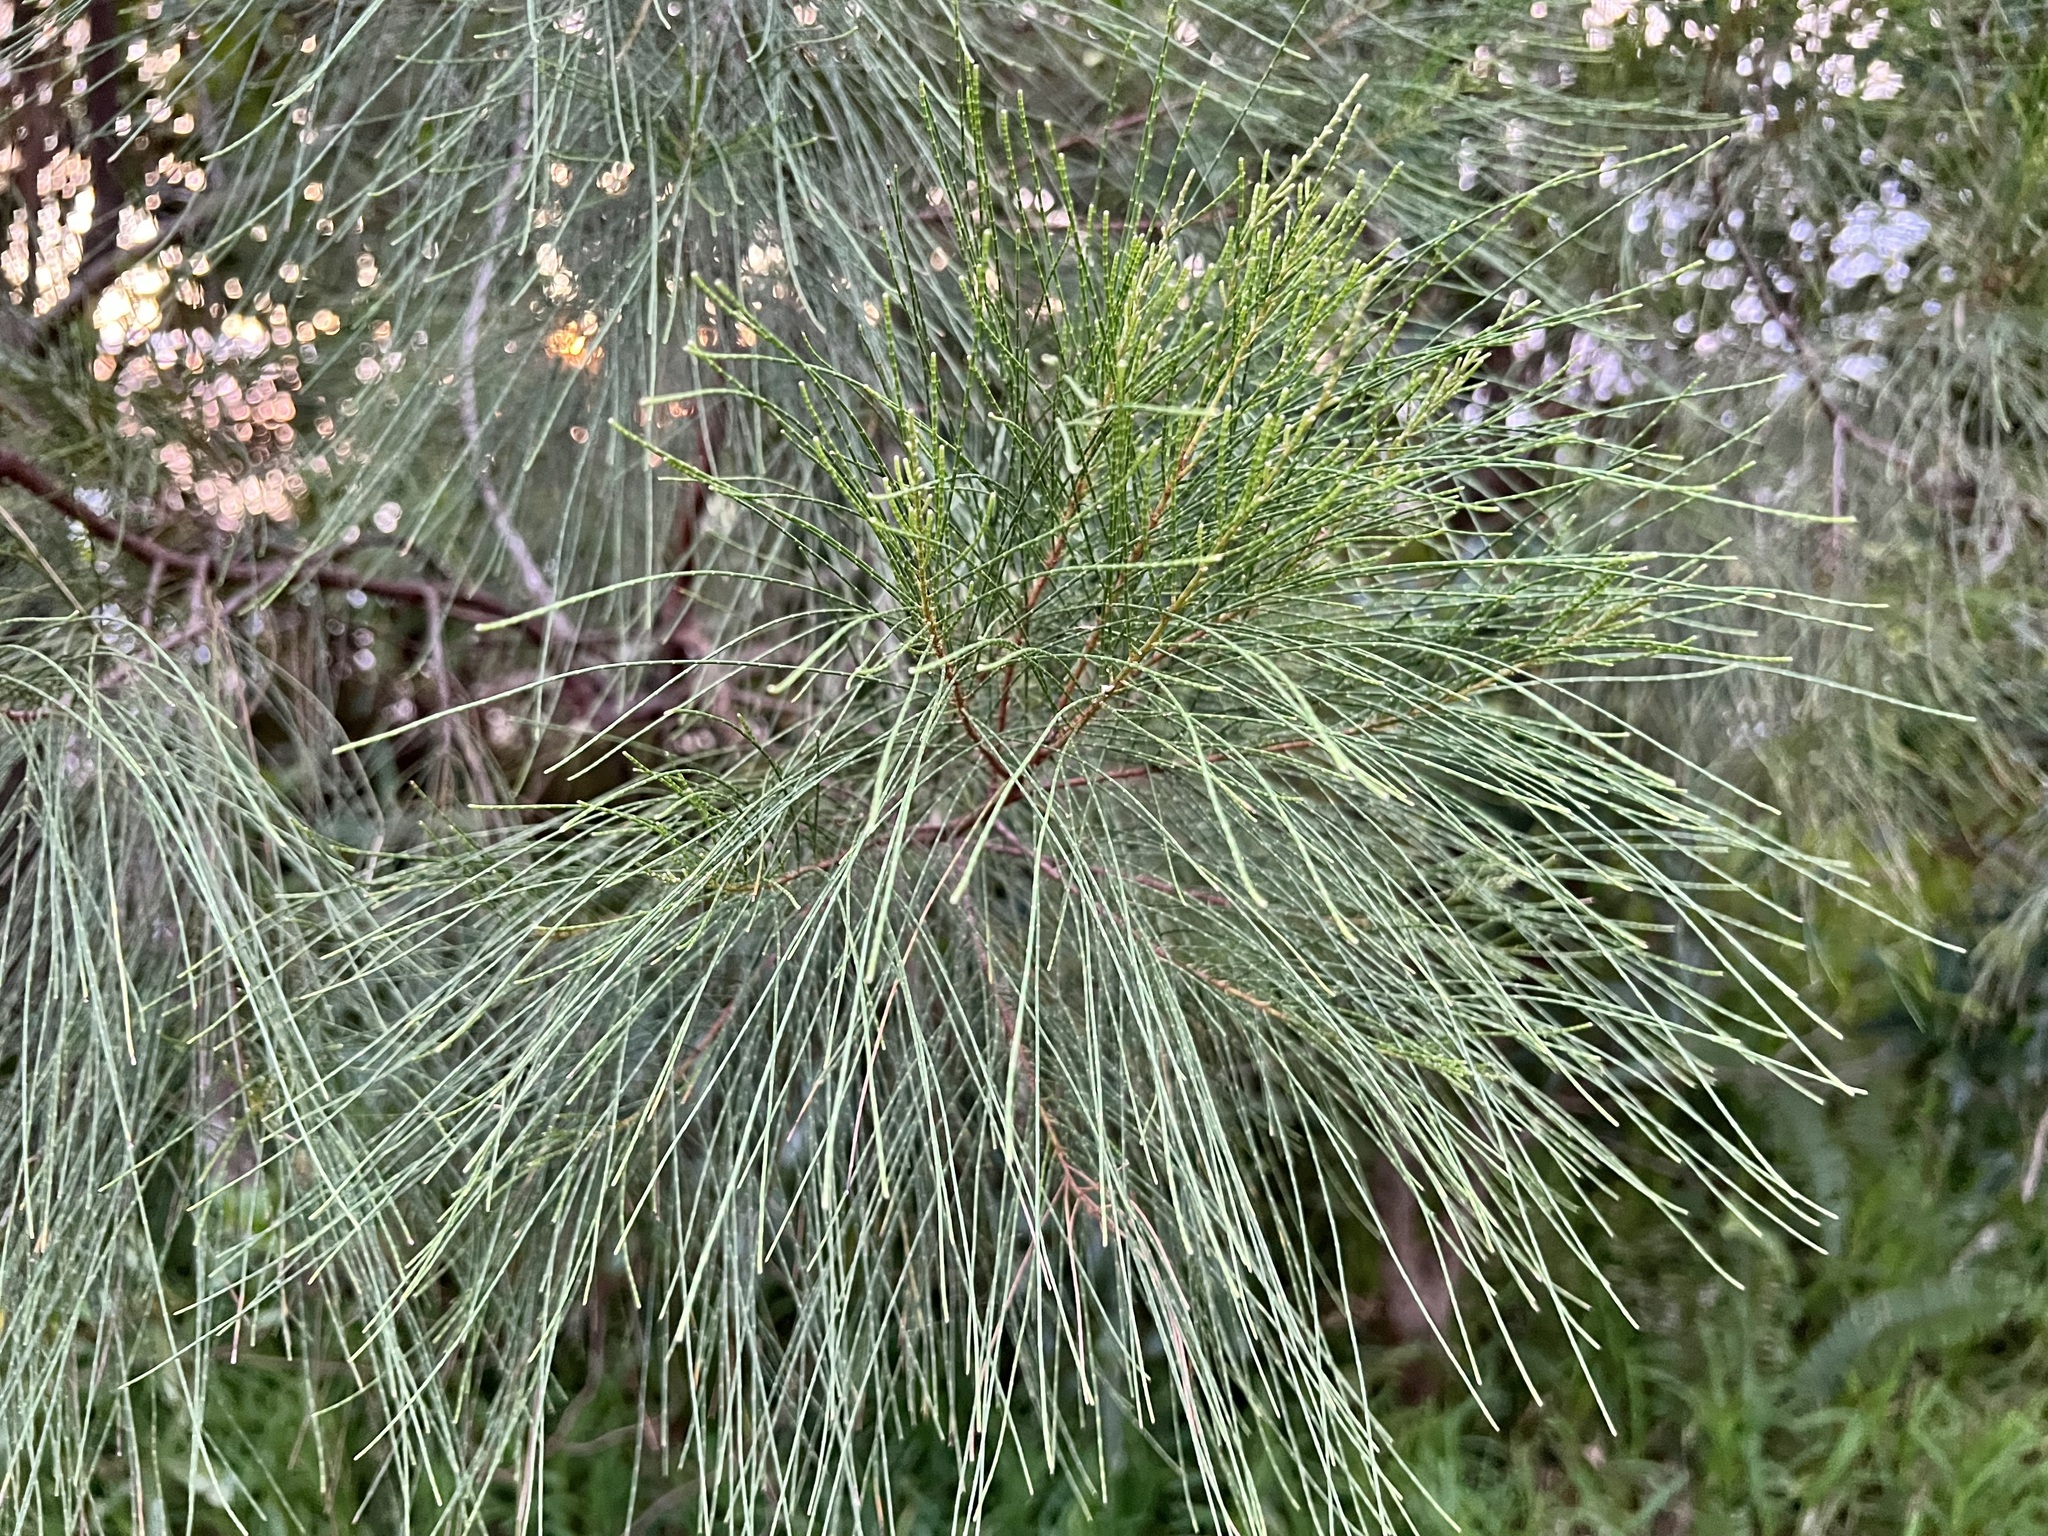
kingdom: Plantae
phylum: Tracheophyta
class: Magnoliopsida
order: Fagales
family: Casuarinaceae
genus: Casuarina
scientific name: Casuarina collina
